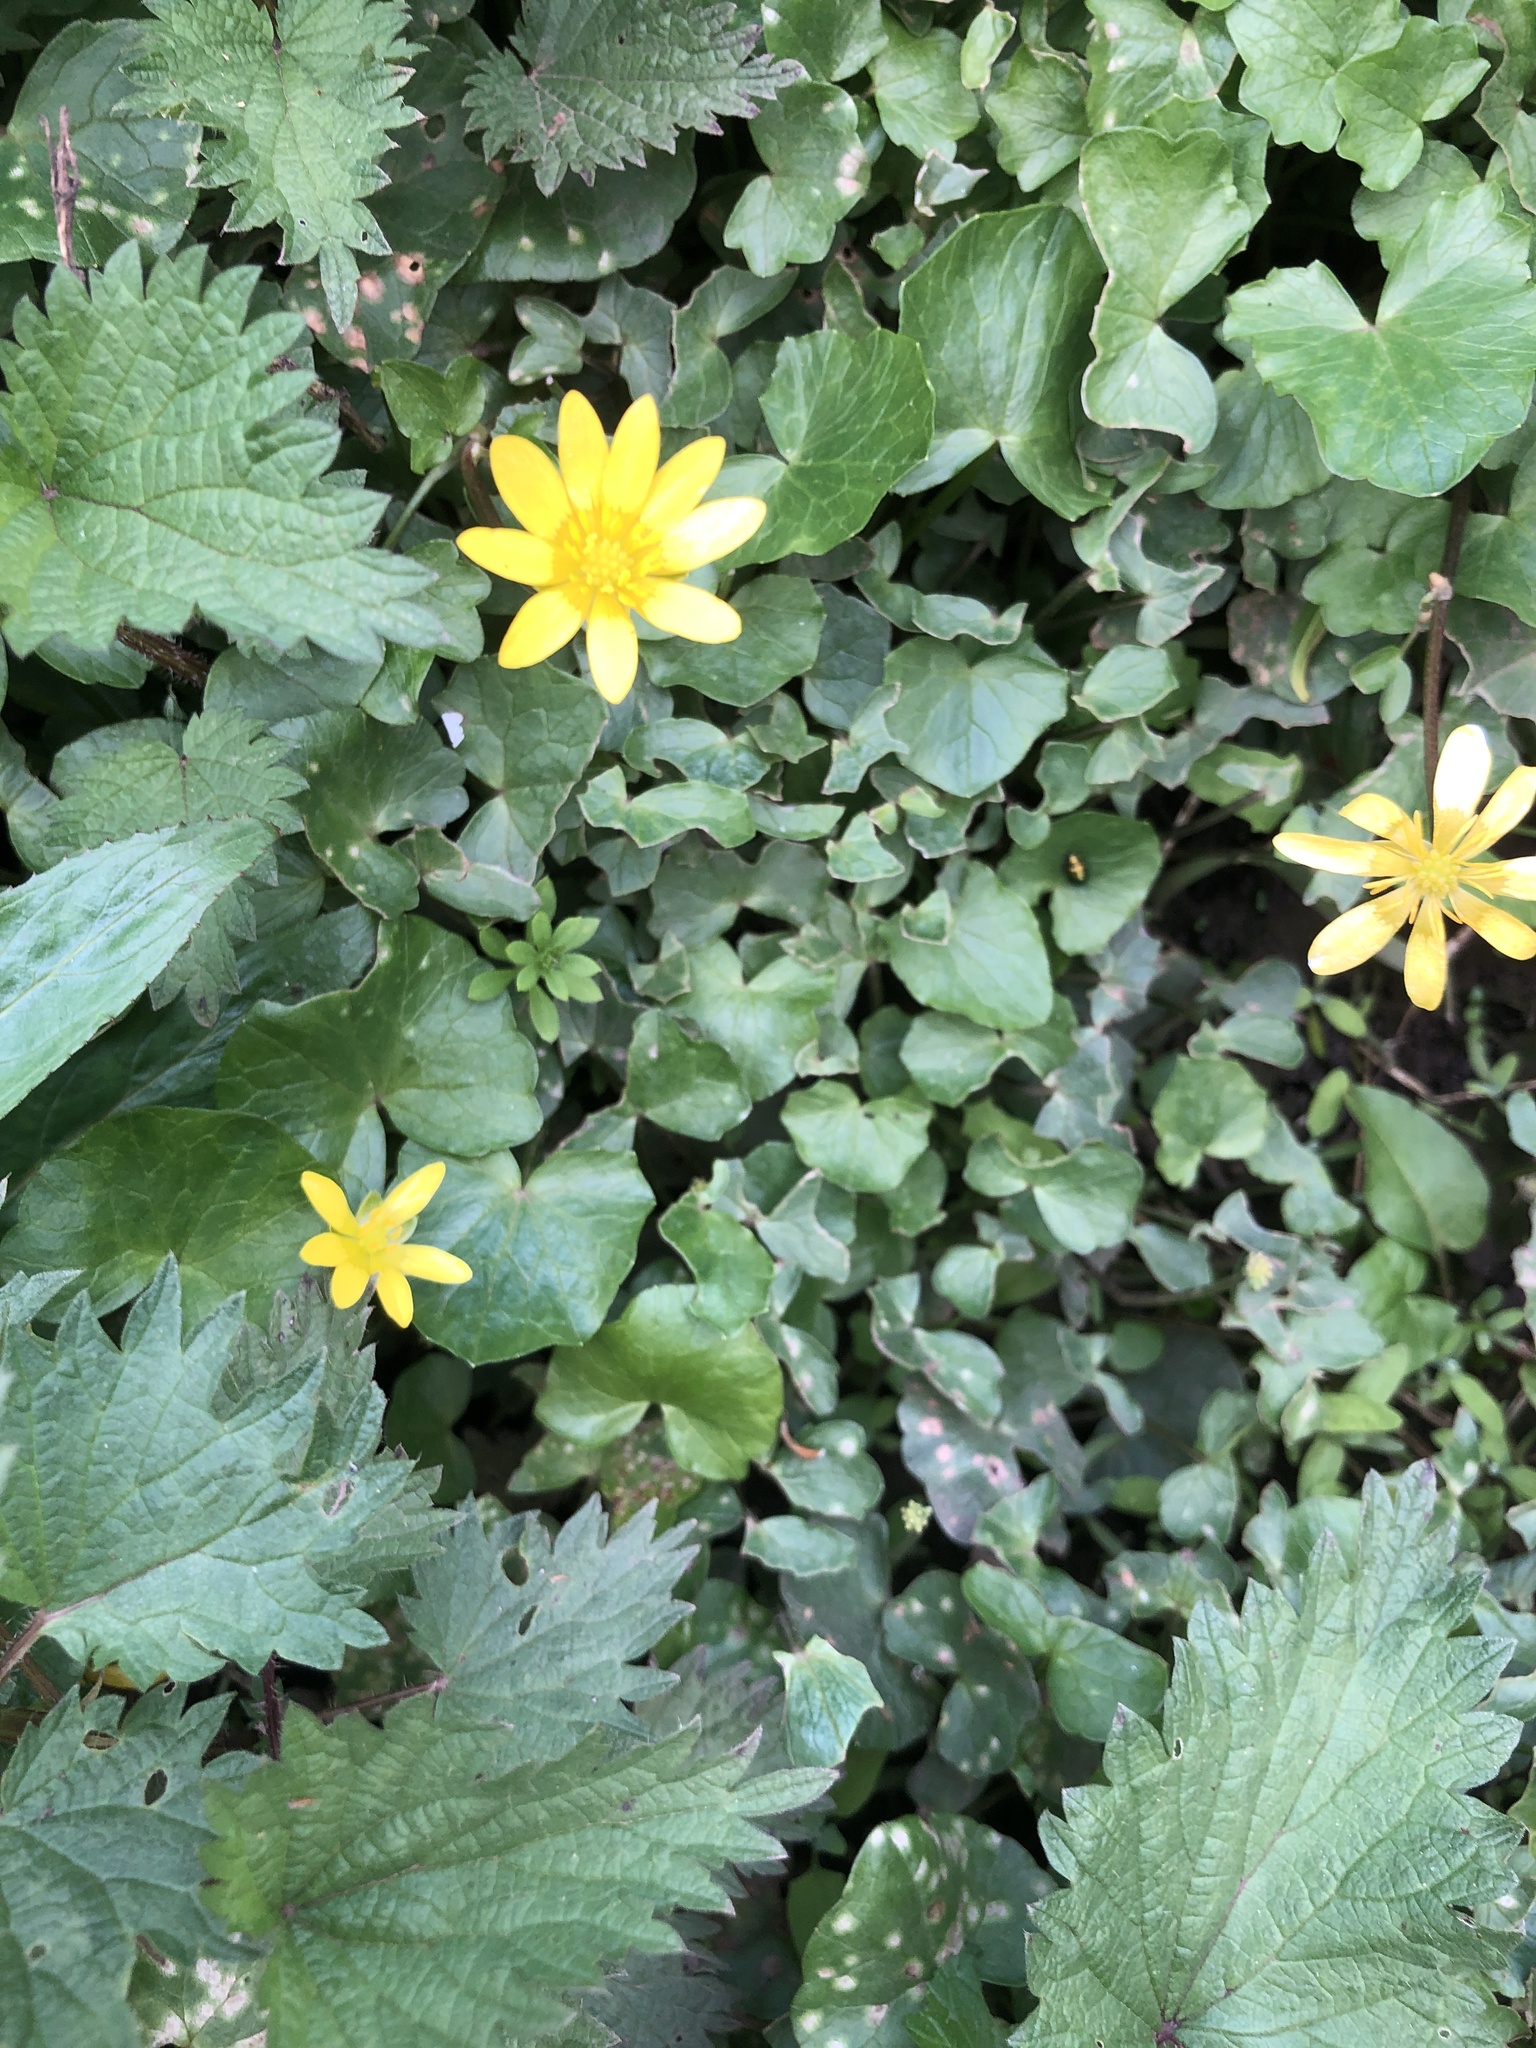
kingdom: Plantae
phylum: Tracheophyta
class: Magnoliopsida
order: Ranunculales
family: Ranunculaceae
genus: Ficaria
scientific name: Ficaria verna
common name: Lesser celandine
